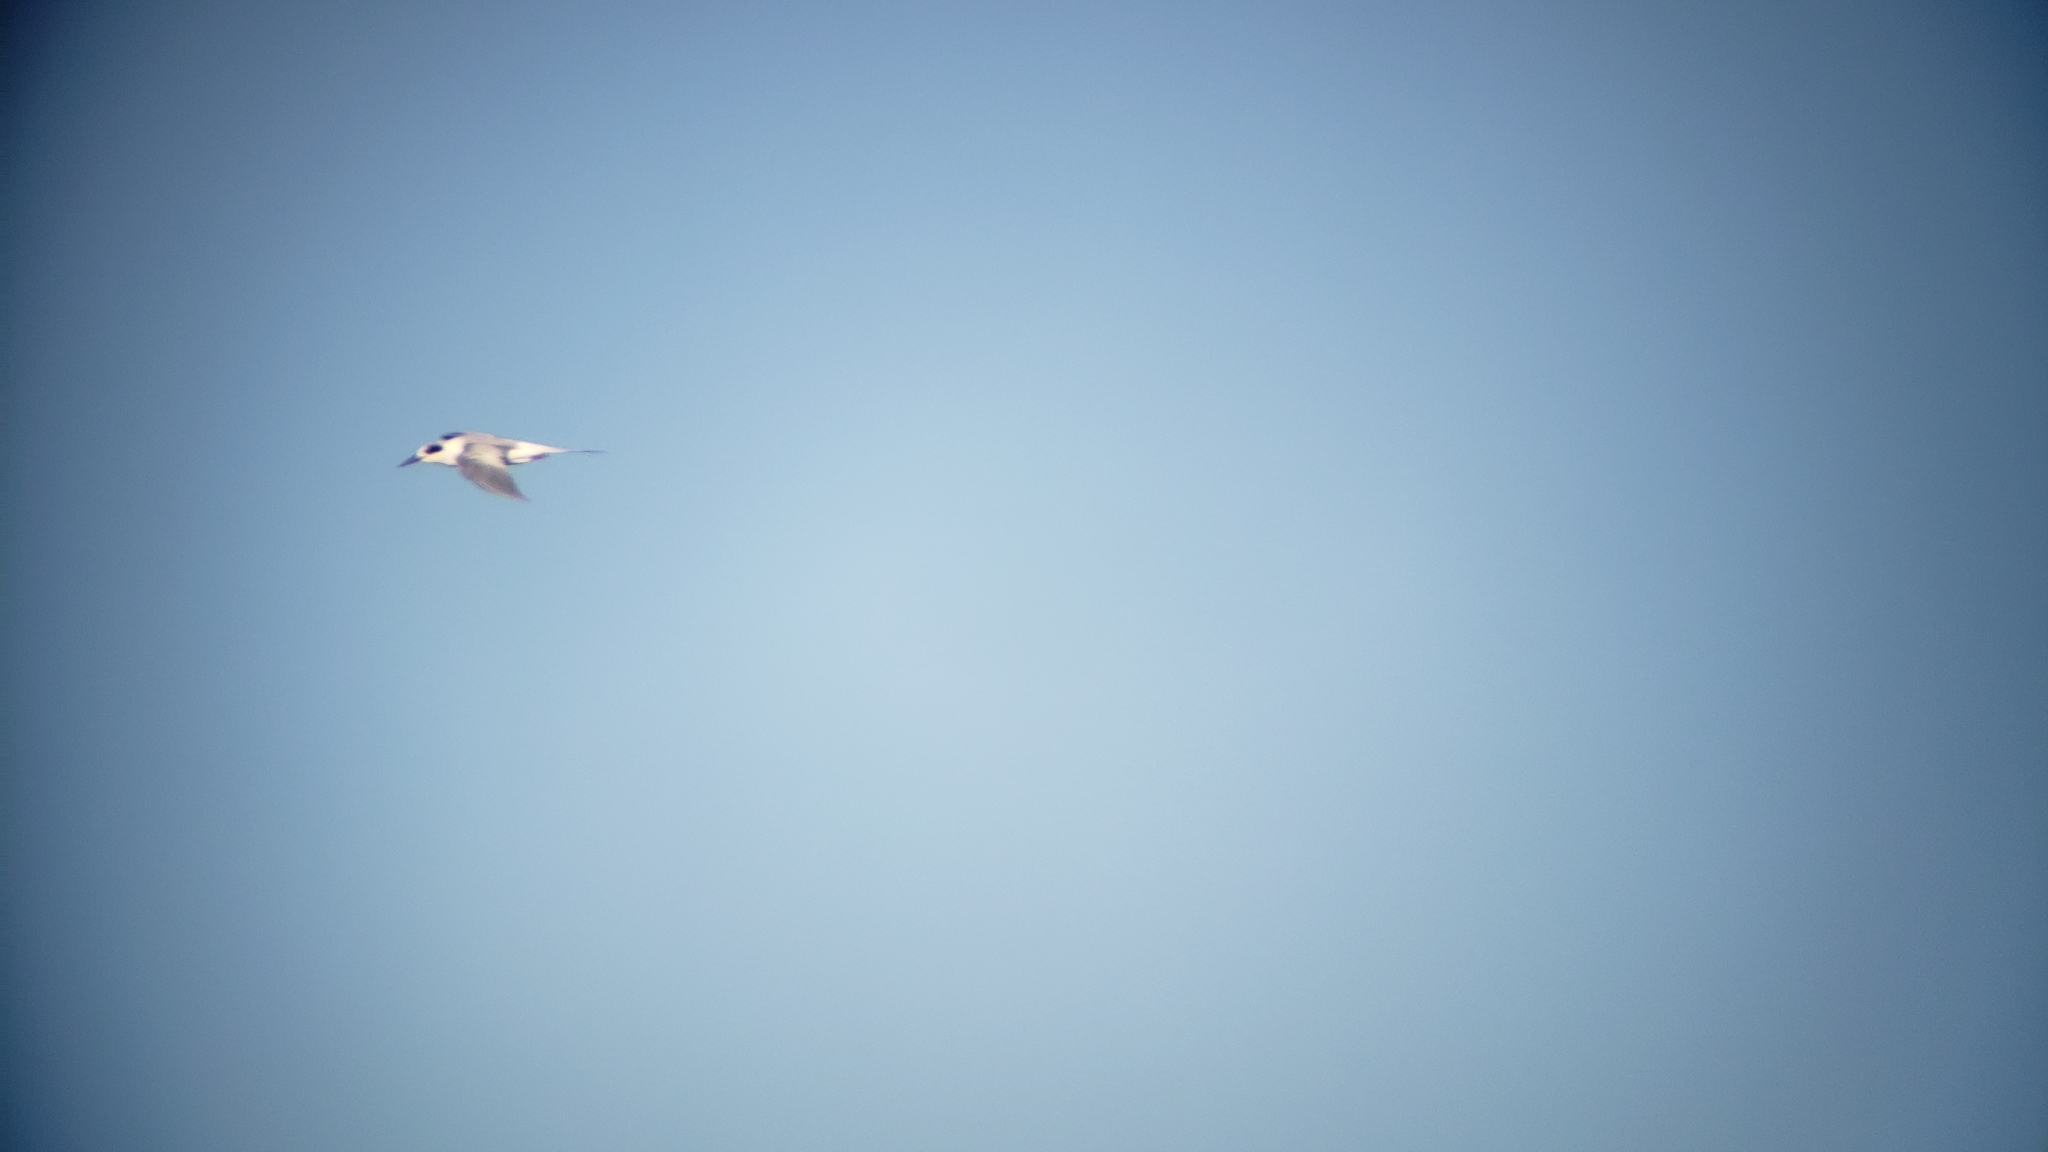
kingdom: Animalia
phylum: Chordata
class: Aves
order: Charadriiformes
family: Laridae
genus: Sterna
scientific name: Sterna forsteri
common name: Forster's tern
